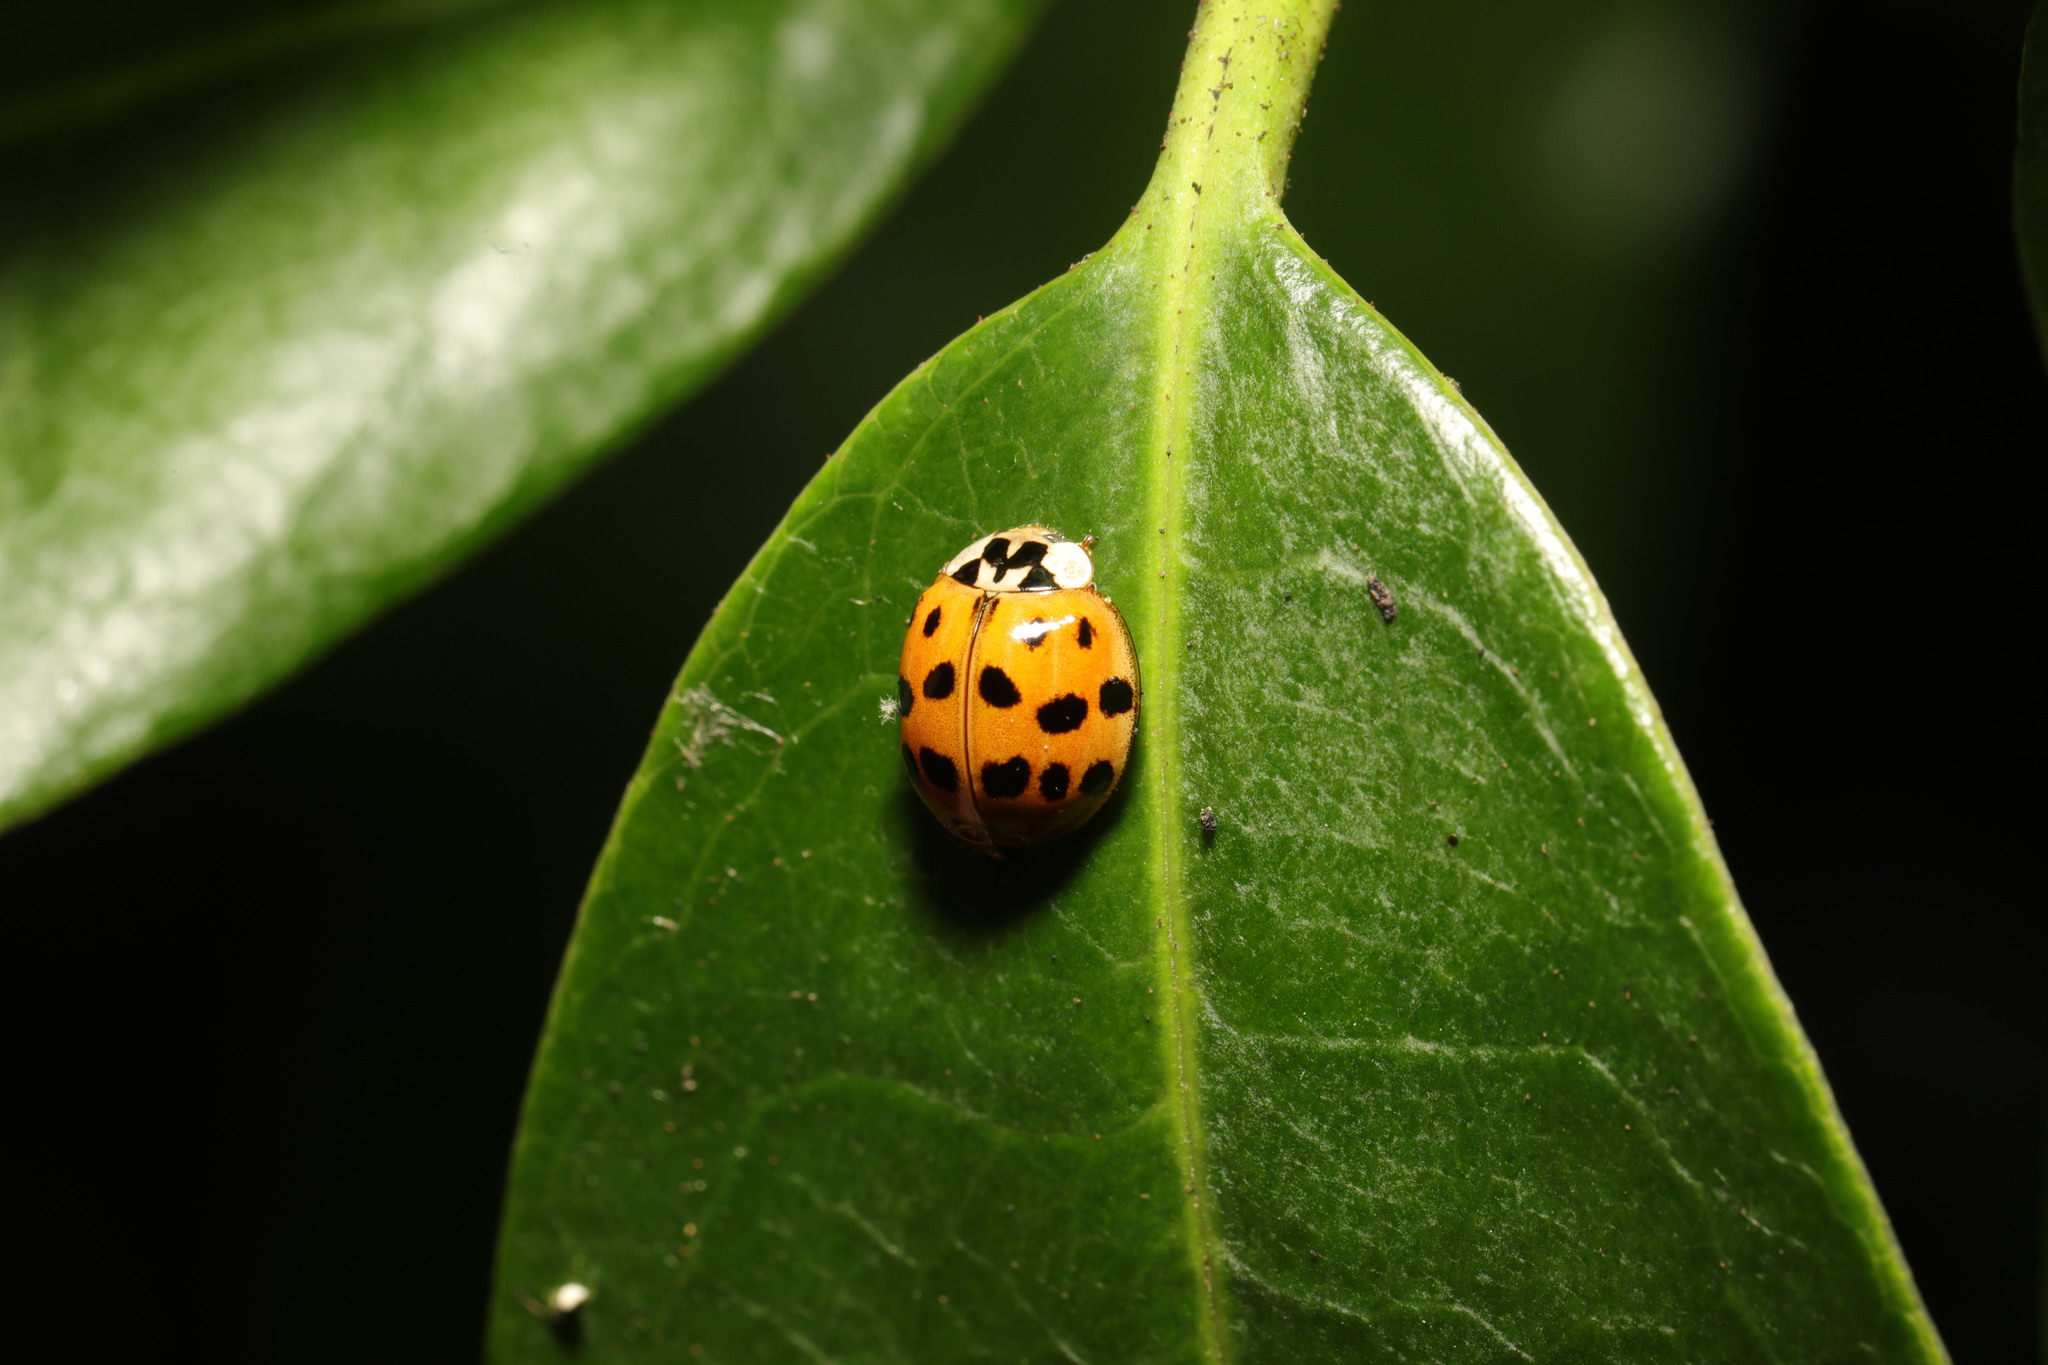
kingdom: Animalia
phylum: Arthropoda
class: Insecta
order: Coleoptera
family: Coccinellidae
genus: Harmonia
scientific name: Harmonia axyridis
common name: Harlequin ladybird
